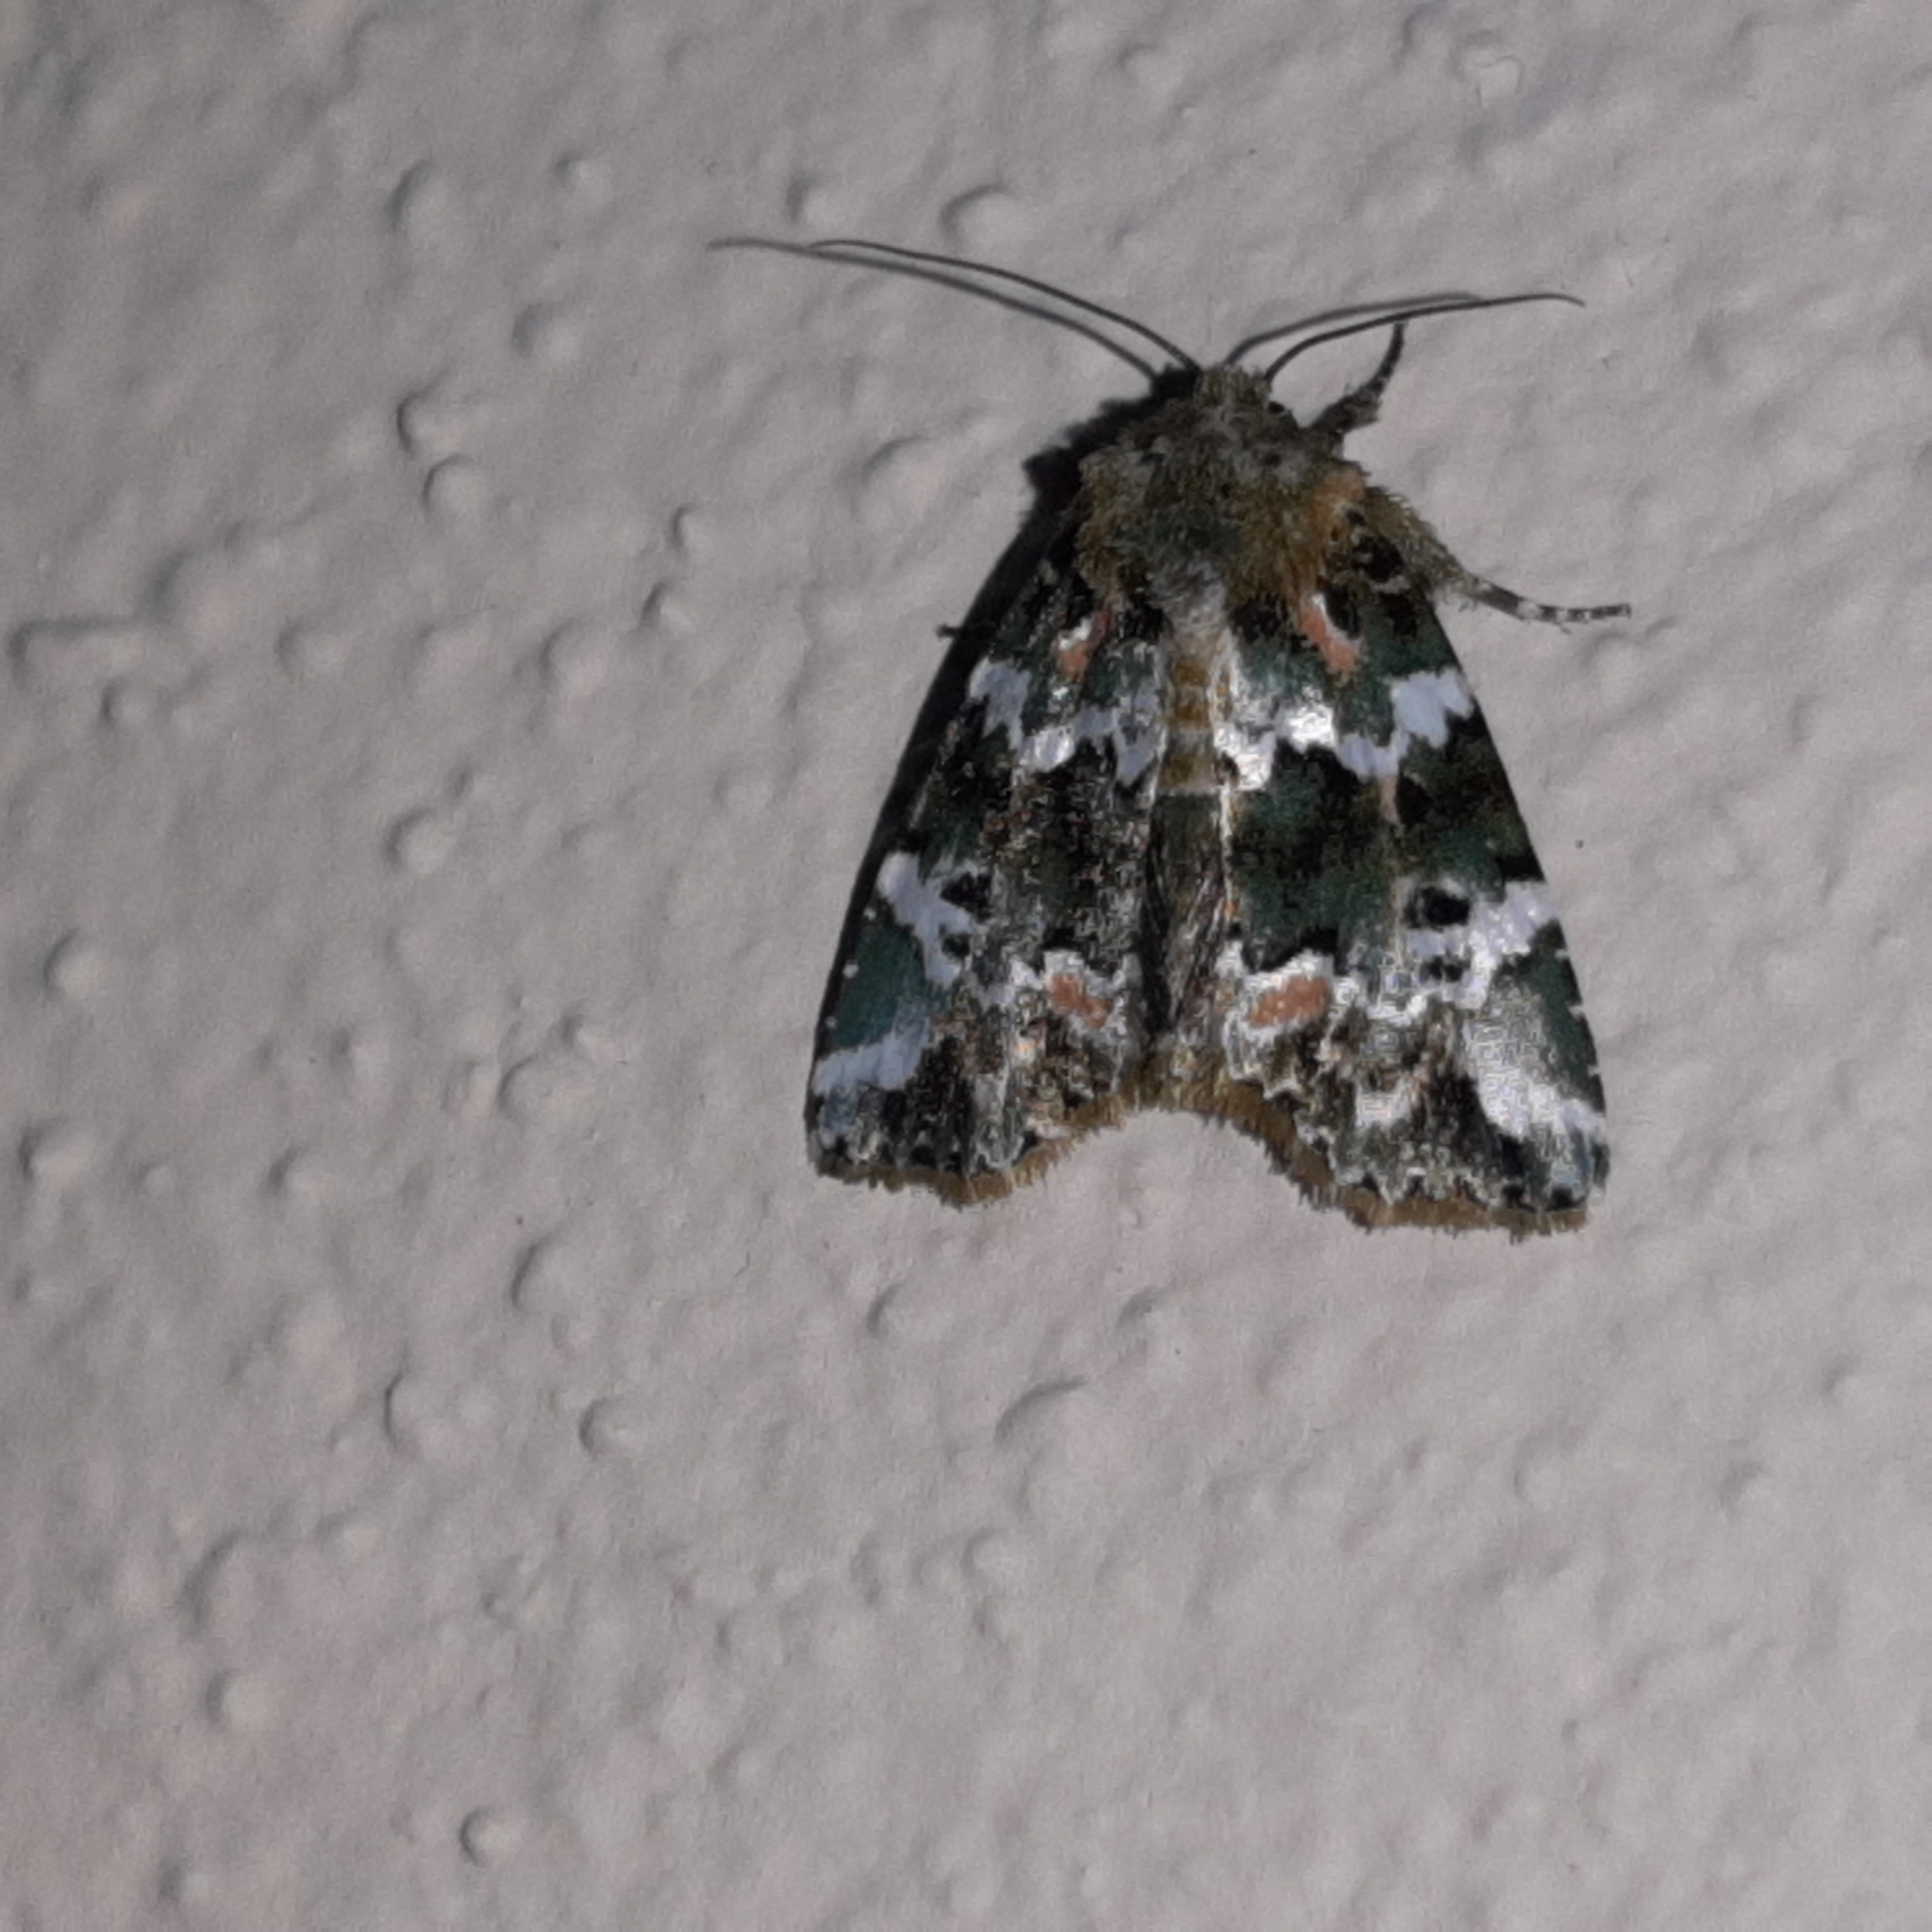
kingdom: Animalia
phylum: Arthropoda
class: Insecta
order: Lepidoptera
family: Noctuidae
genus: Chytonix
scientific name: Chytonix elegans
